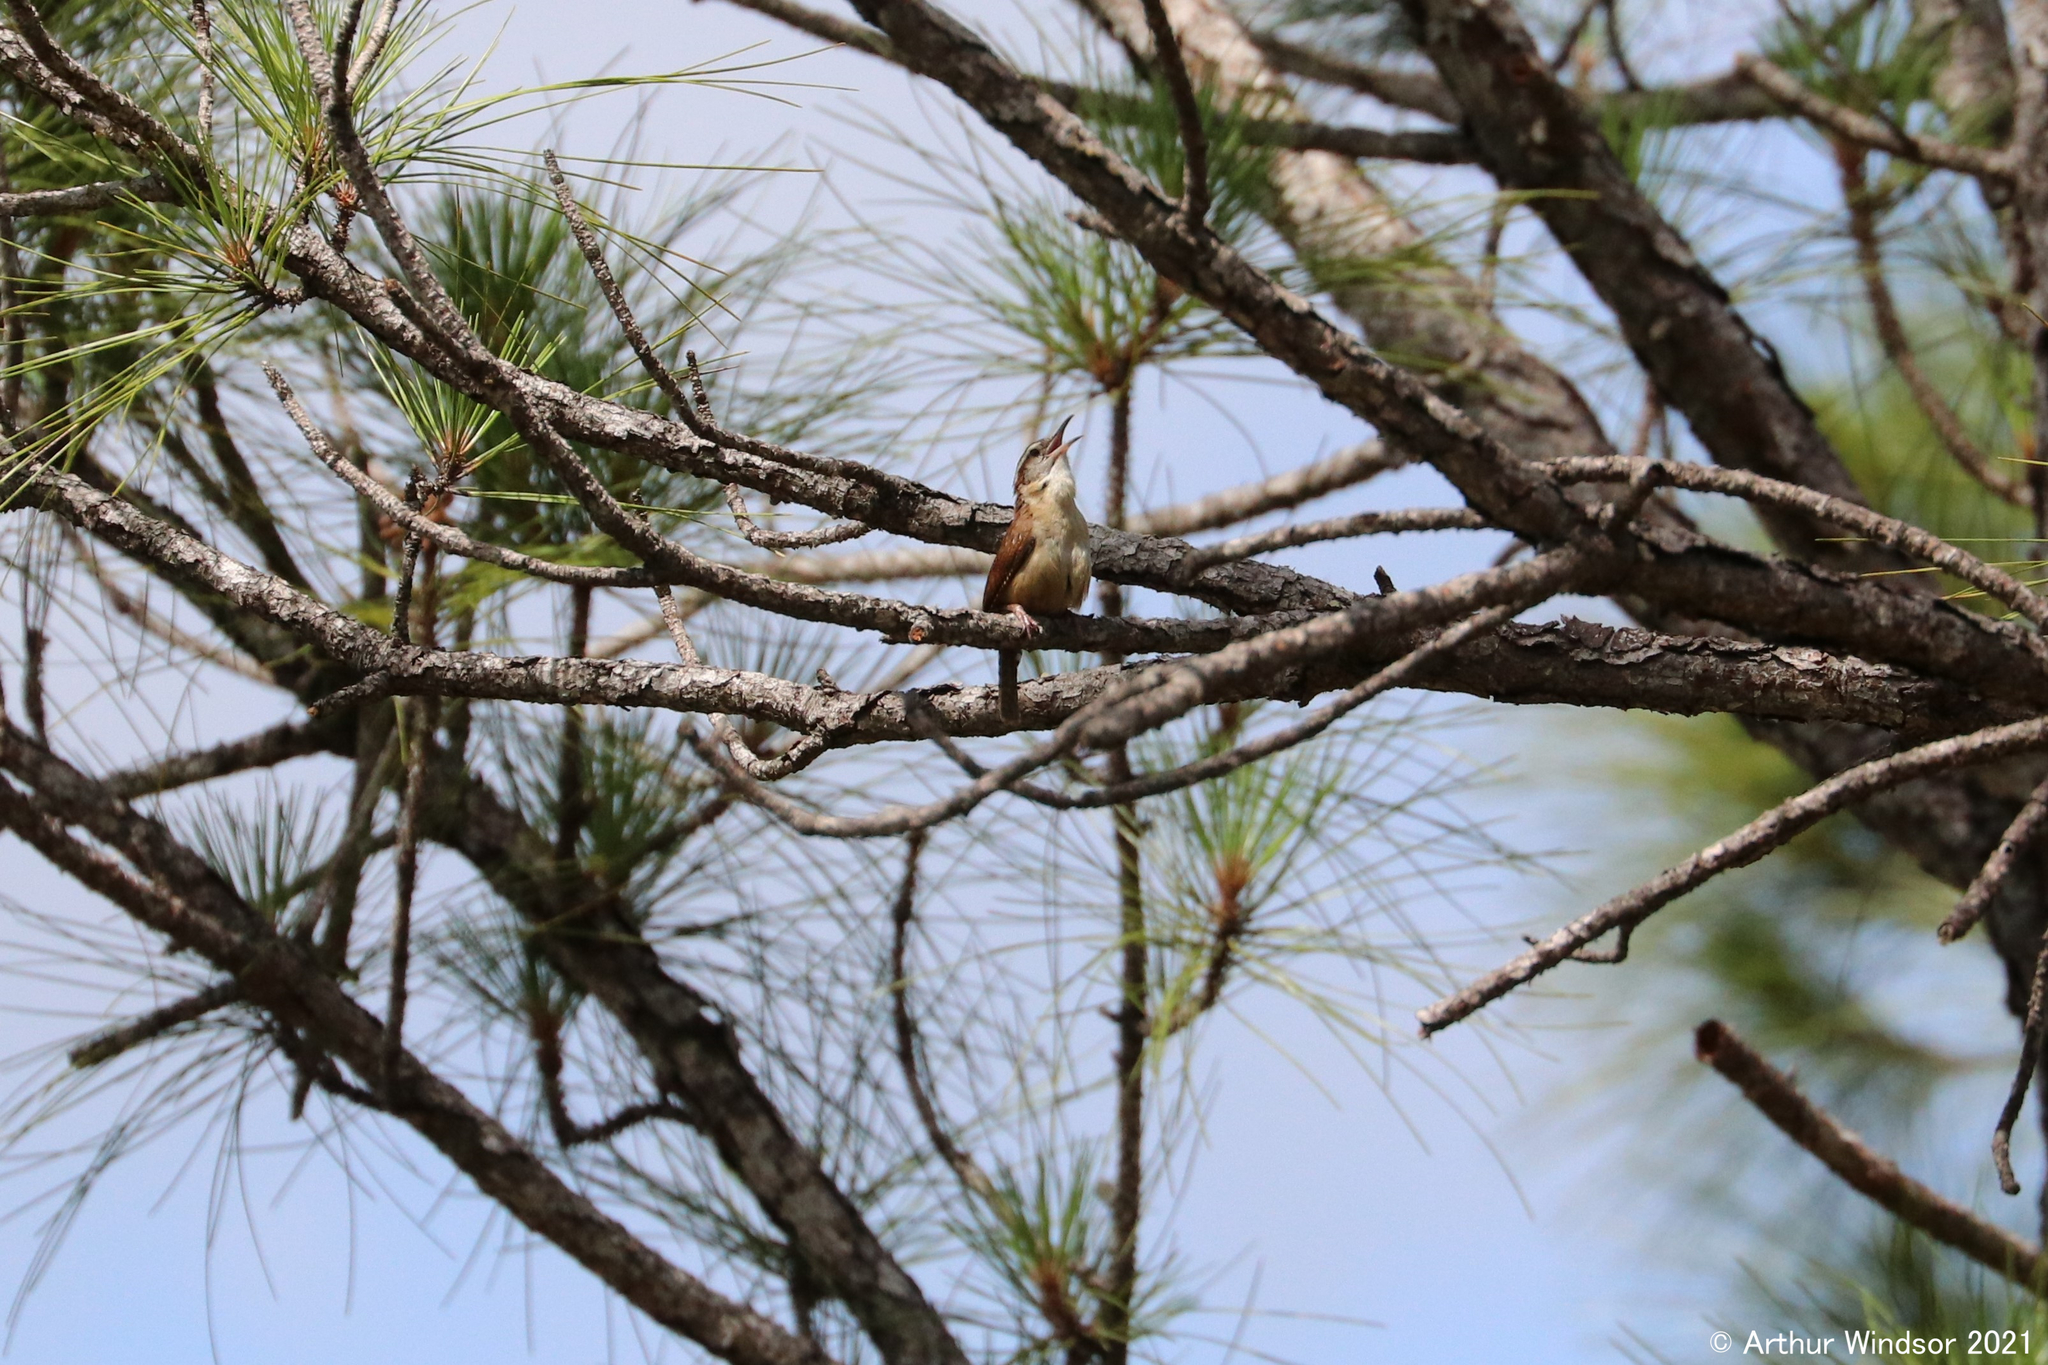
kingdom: Animalia
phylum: Chordata
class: Aves
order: Passeriformes
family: Troglodytidae
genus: Thryothorus
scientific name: Thryothorus ludovicianus
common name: Carolina wren
